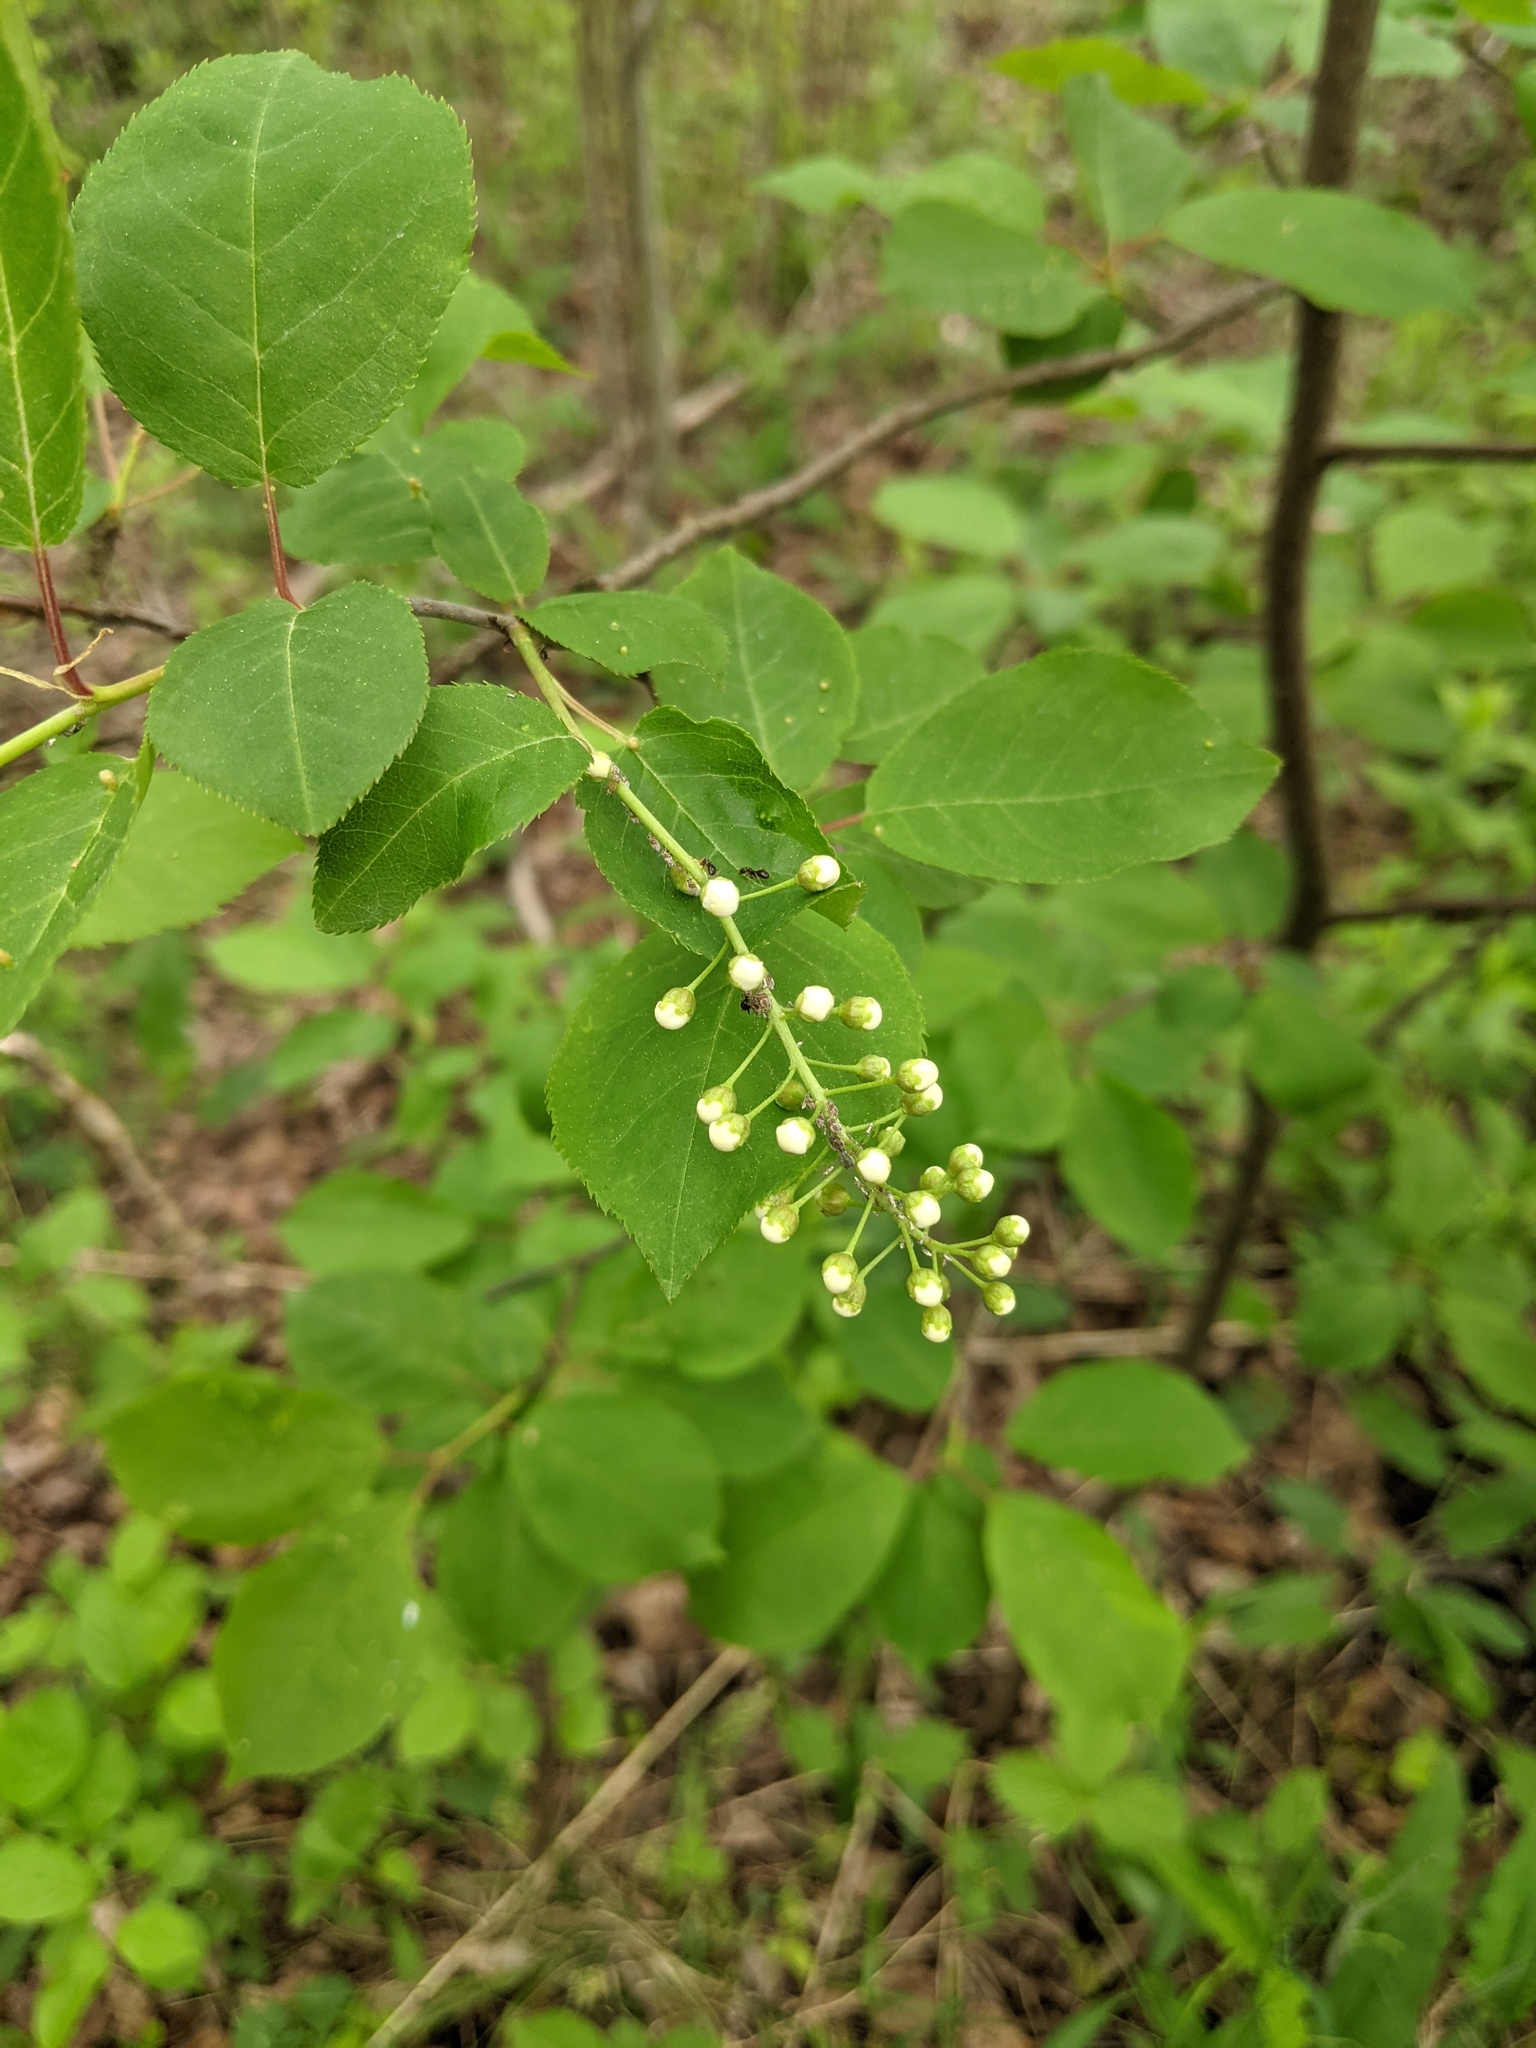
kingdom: Plantae
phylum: Tracheophyta
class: Magnoliopsida
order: Rosales
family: Rosaceae
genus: Prunus
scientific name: Prunus virginiana
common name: Chokecherry
